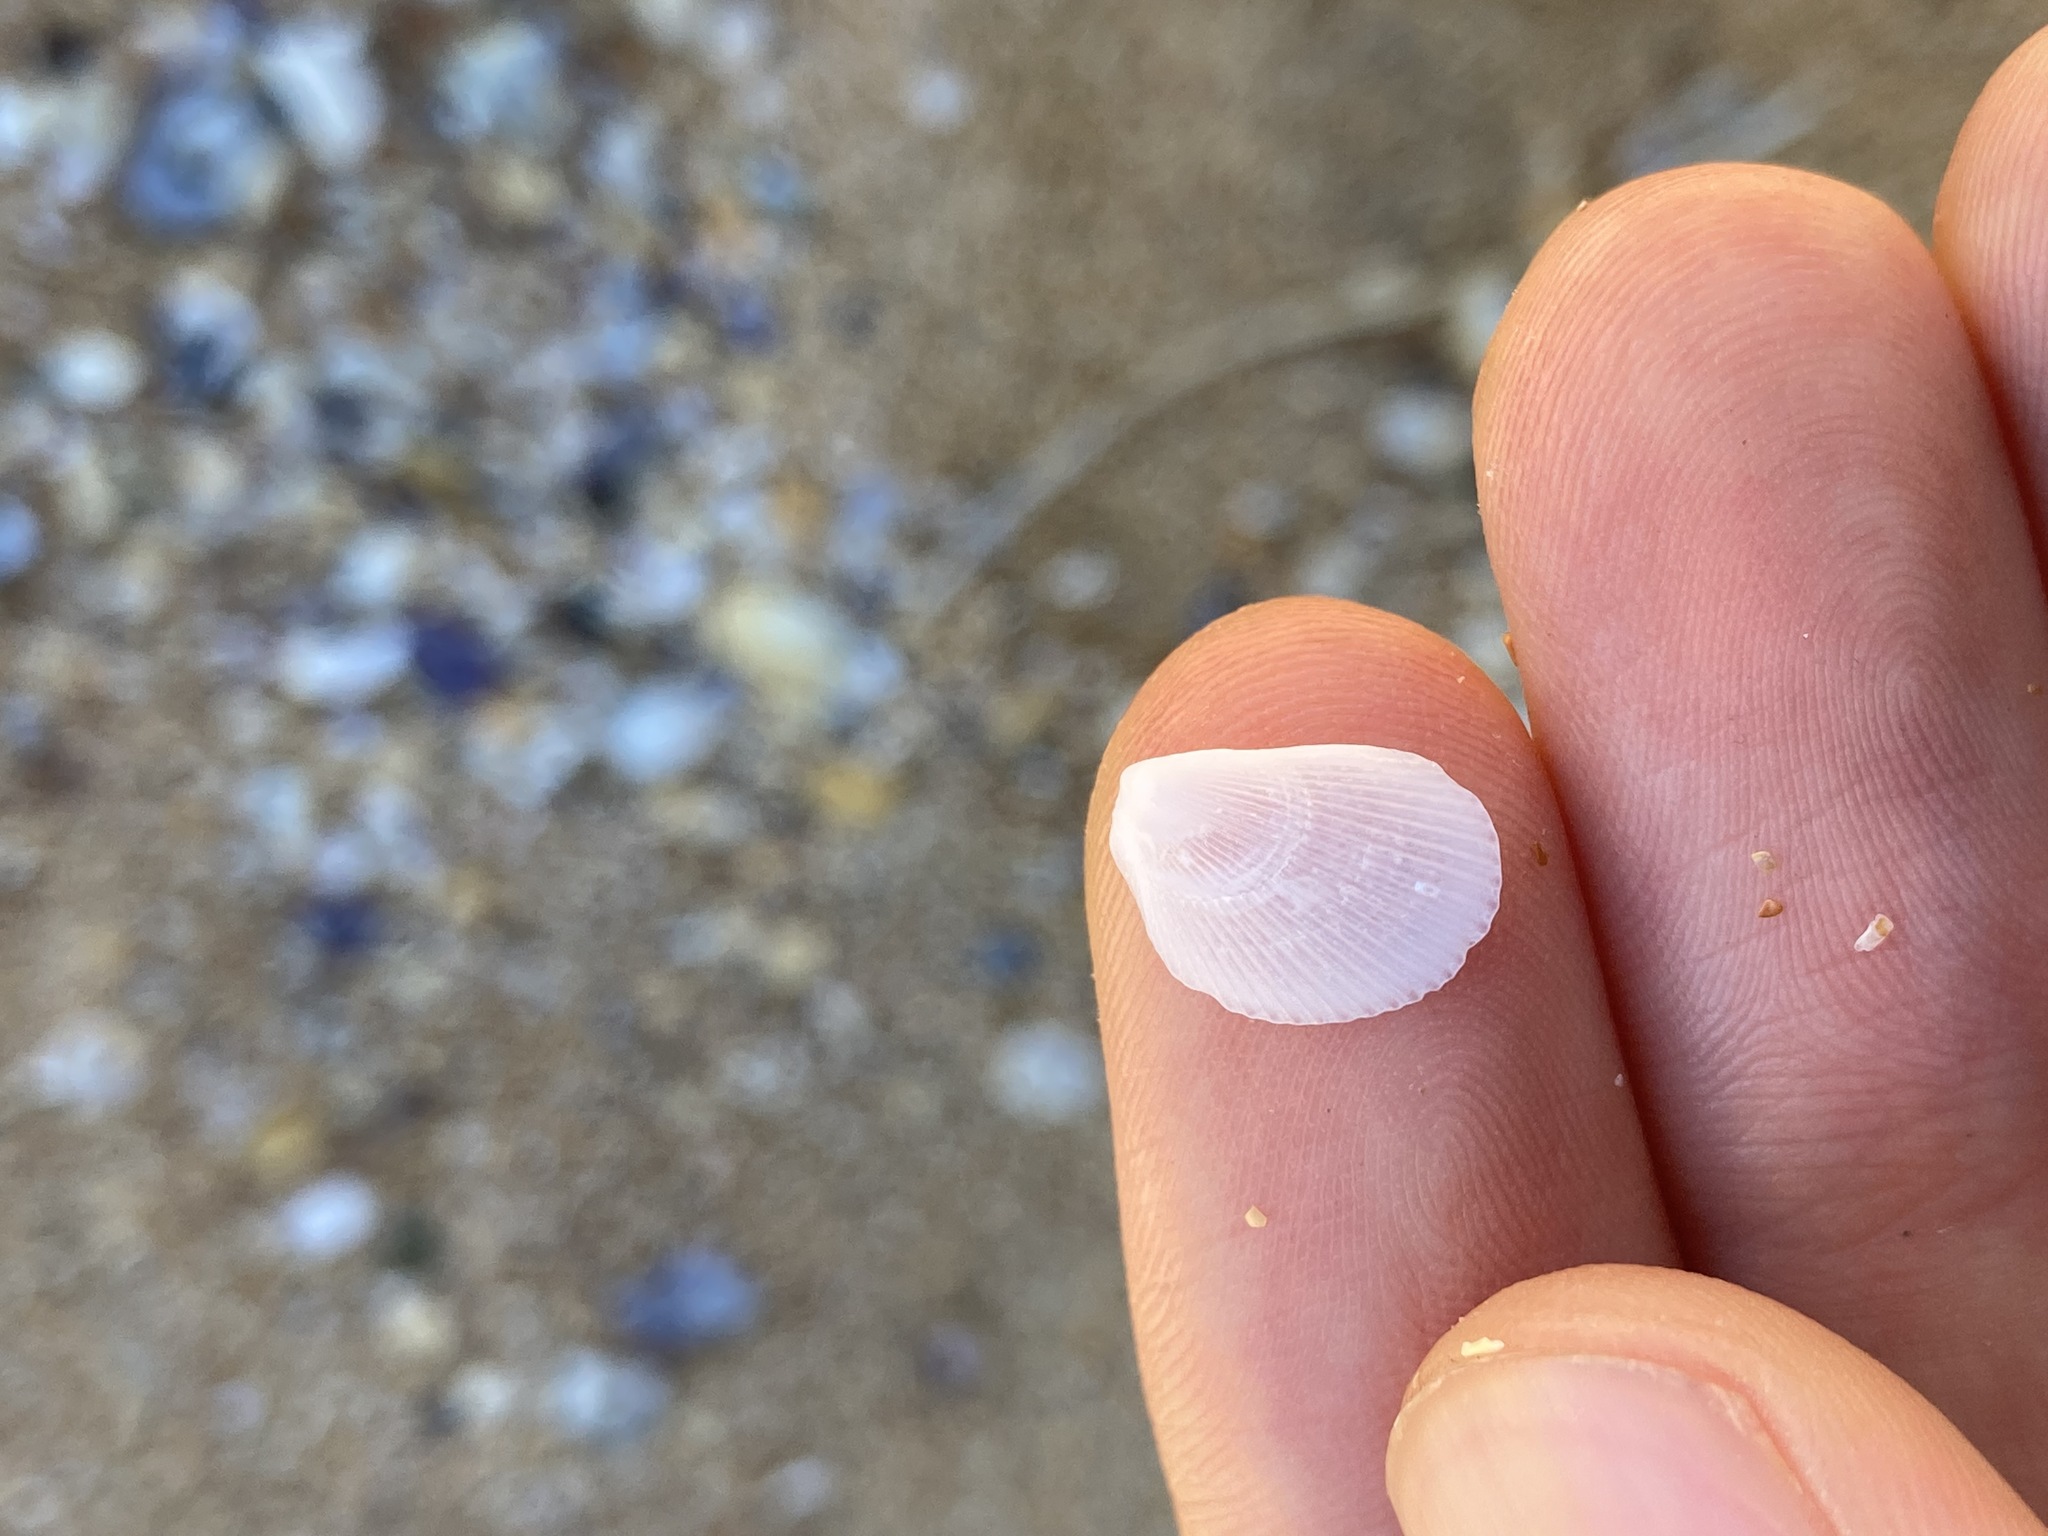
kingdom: Animalia
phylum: Mollusca
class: Bivalvia
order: Limida
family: Limidae
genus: Lima
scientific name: Lima nimbifer
